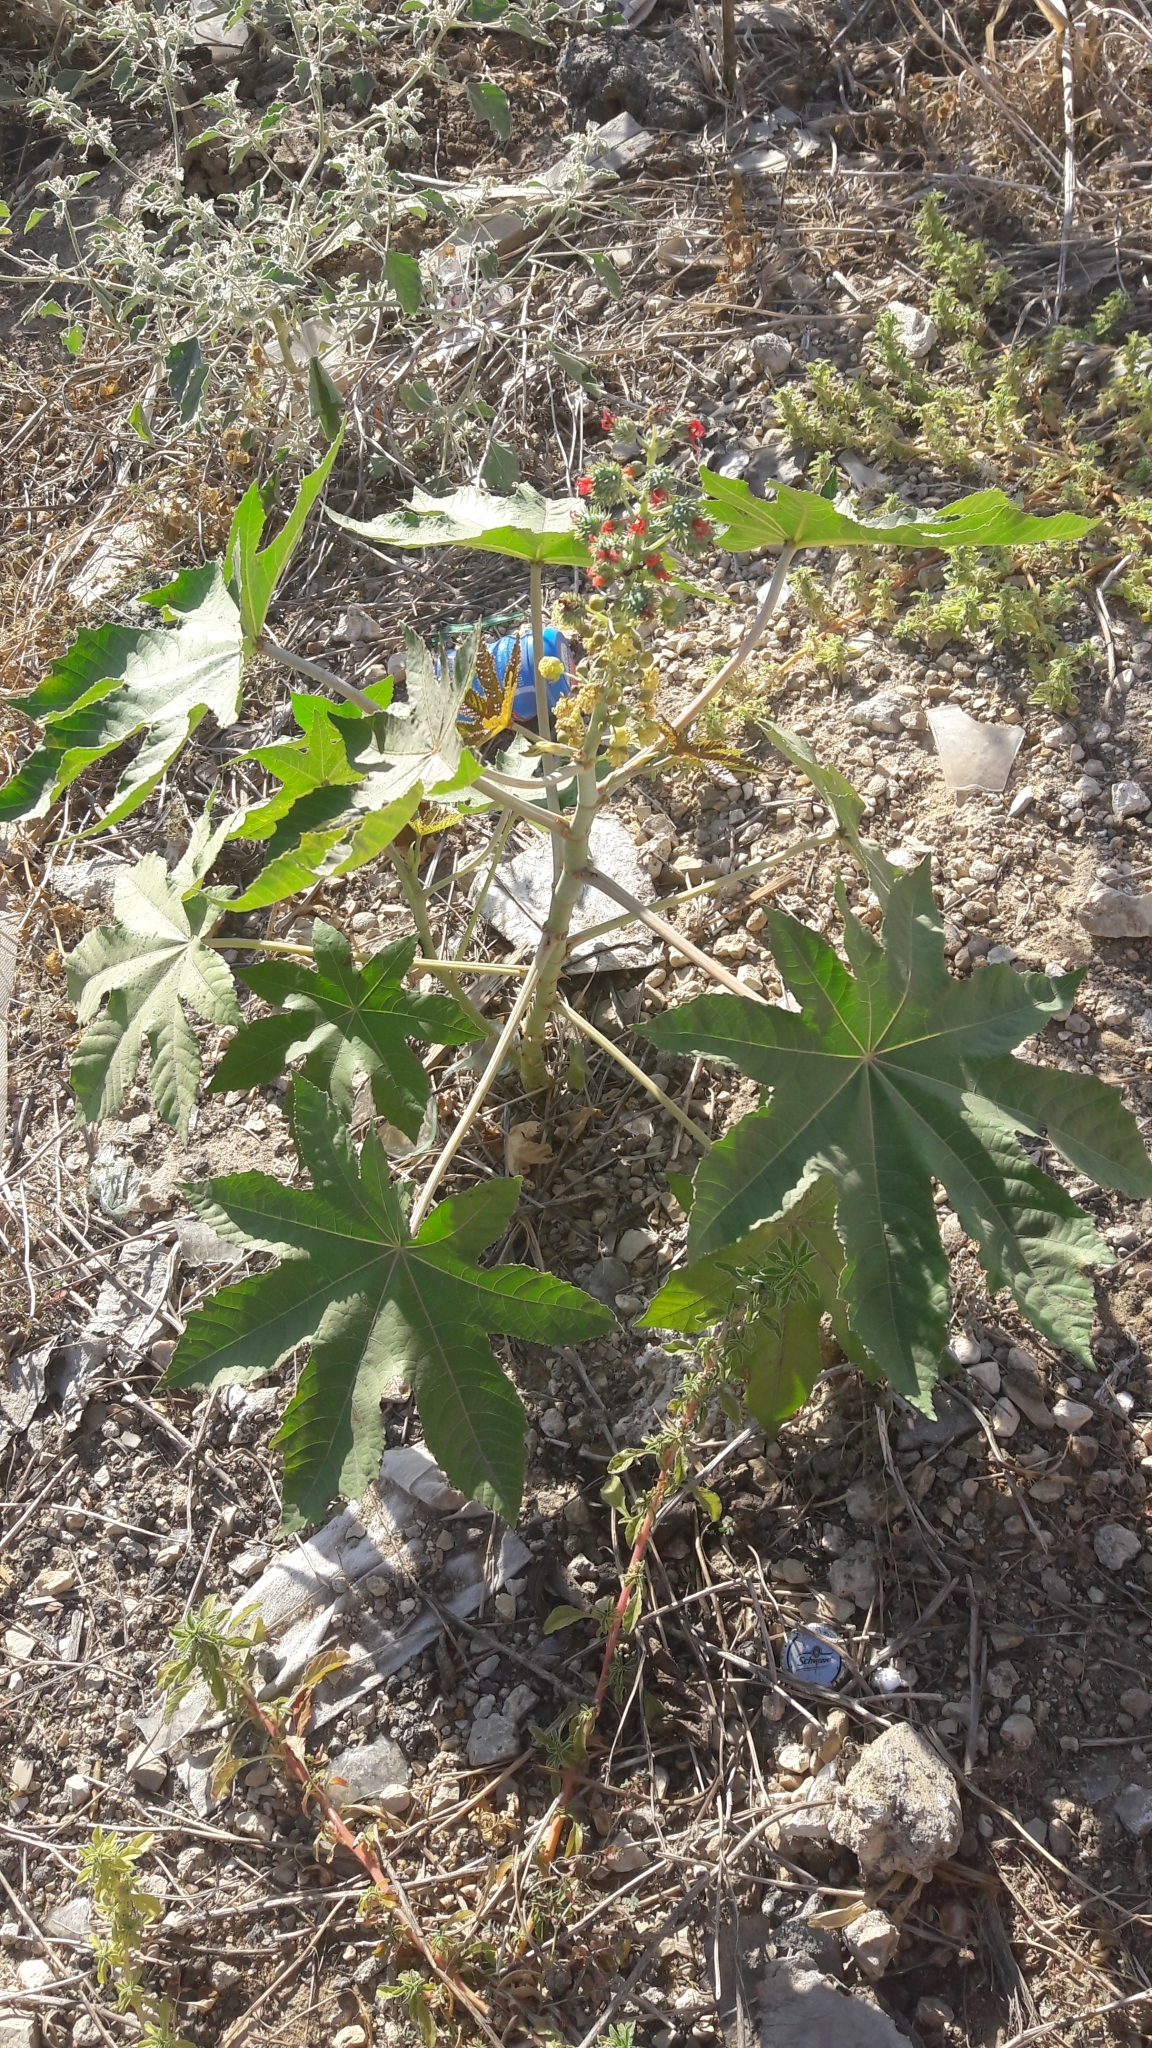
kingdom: Plantae
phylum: Tracheophyta
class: Magnoliopsida
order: Malpighiales
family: Euphorbiaceae
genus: Ricinus
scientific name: Ricinus communis
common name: Castor-oil-plant
